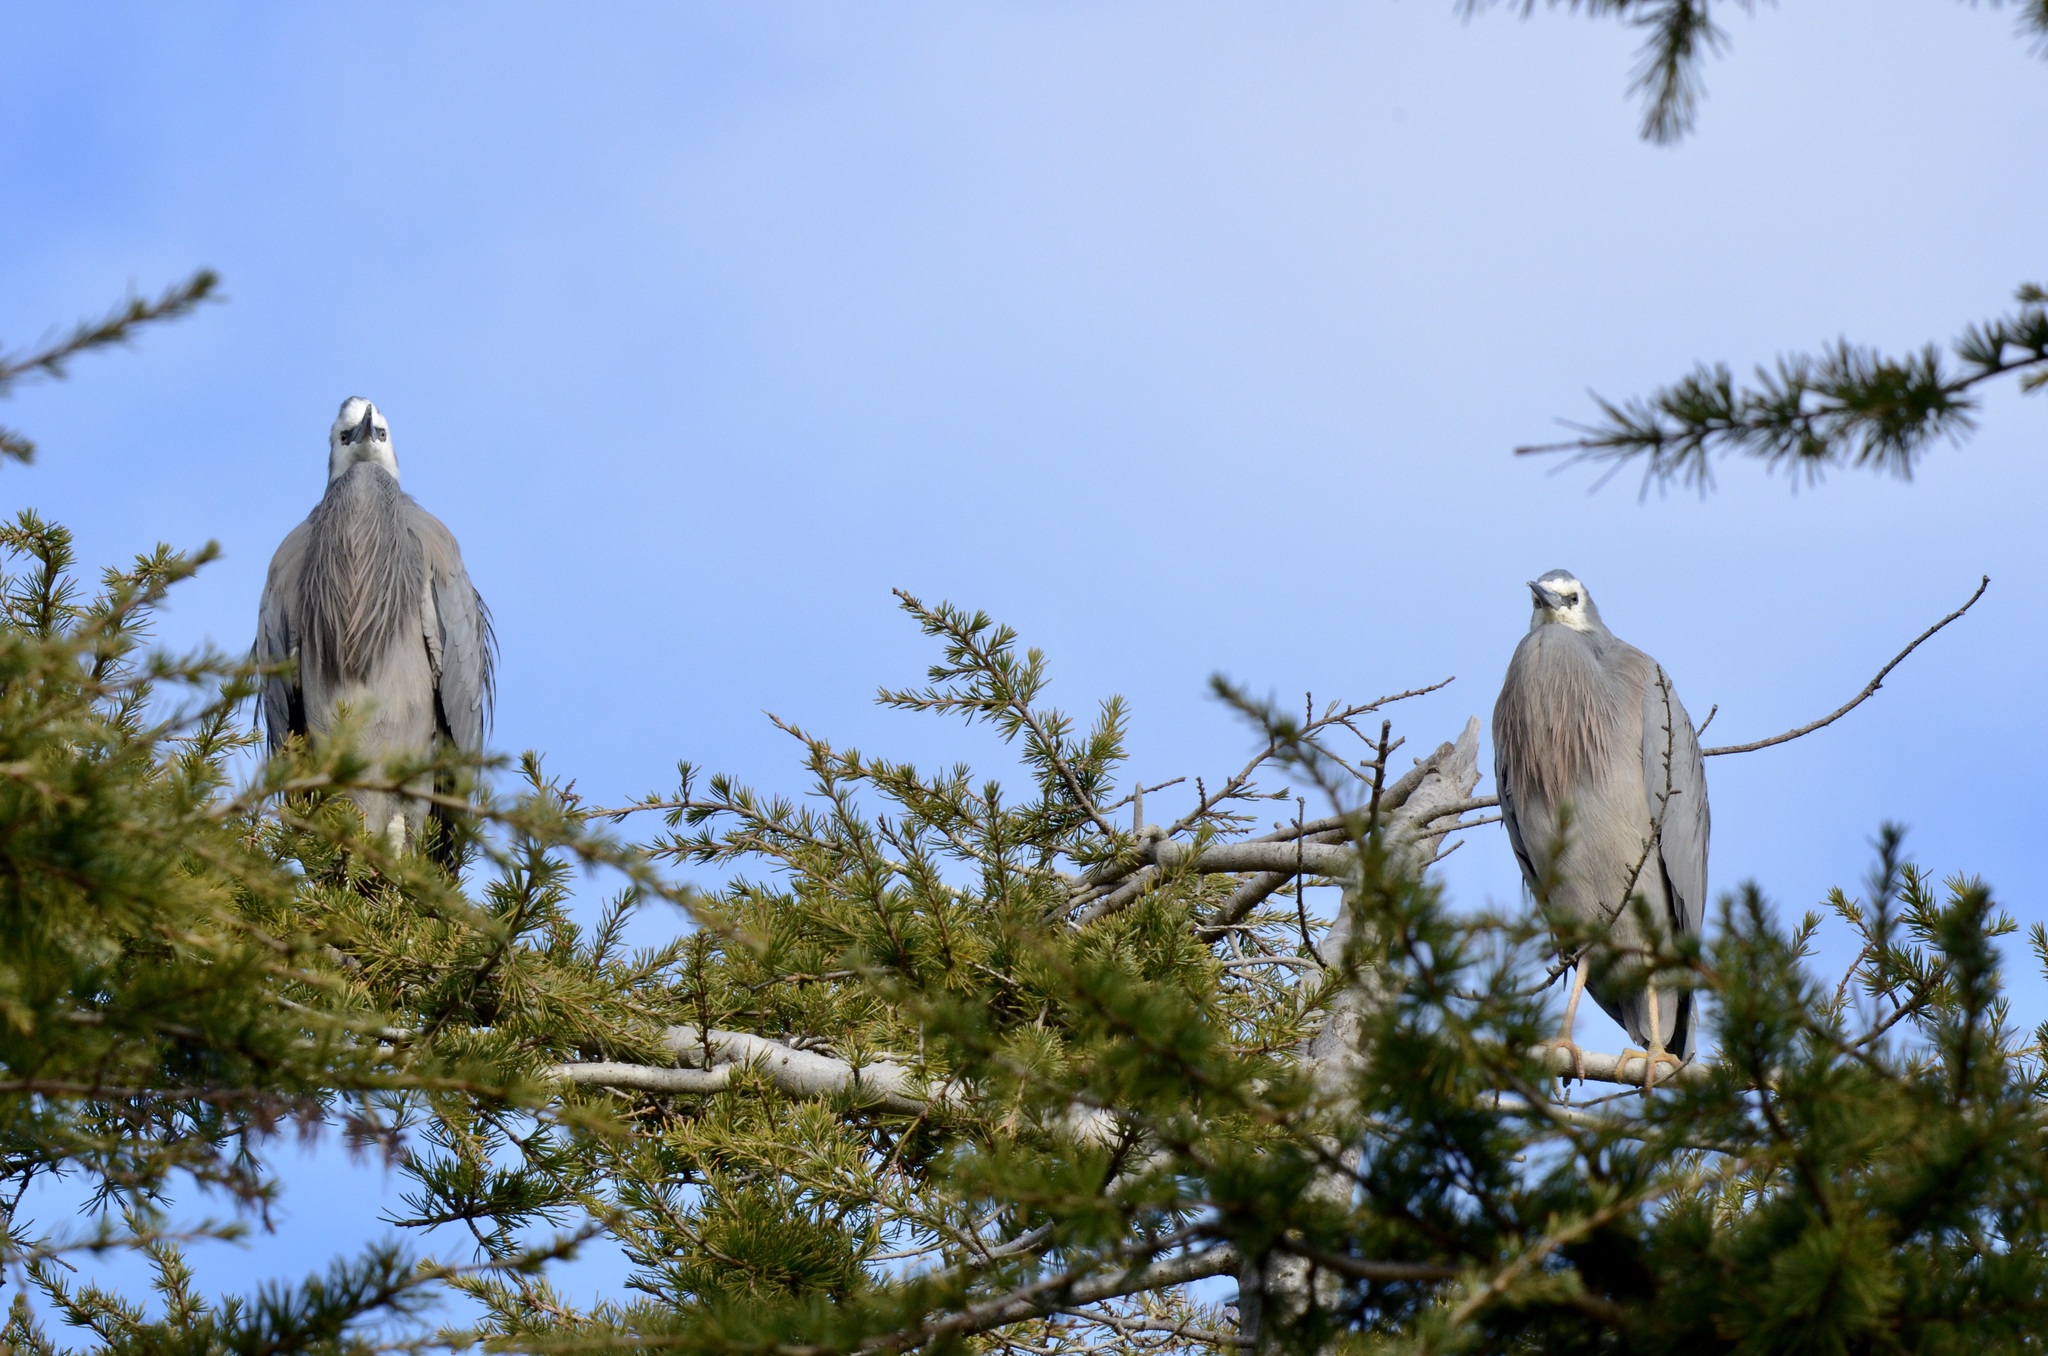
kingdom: Animalia
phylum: Chordata
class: Aves
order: Pelecaniformes
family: Ardeidae
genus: Egretta
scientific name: Egretta novaehollandiae
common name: White-faced heron
